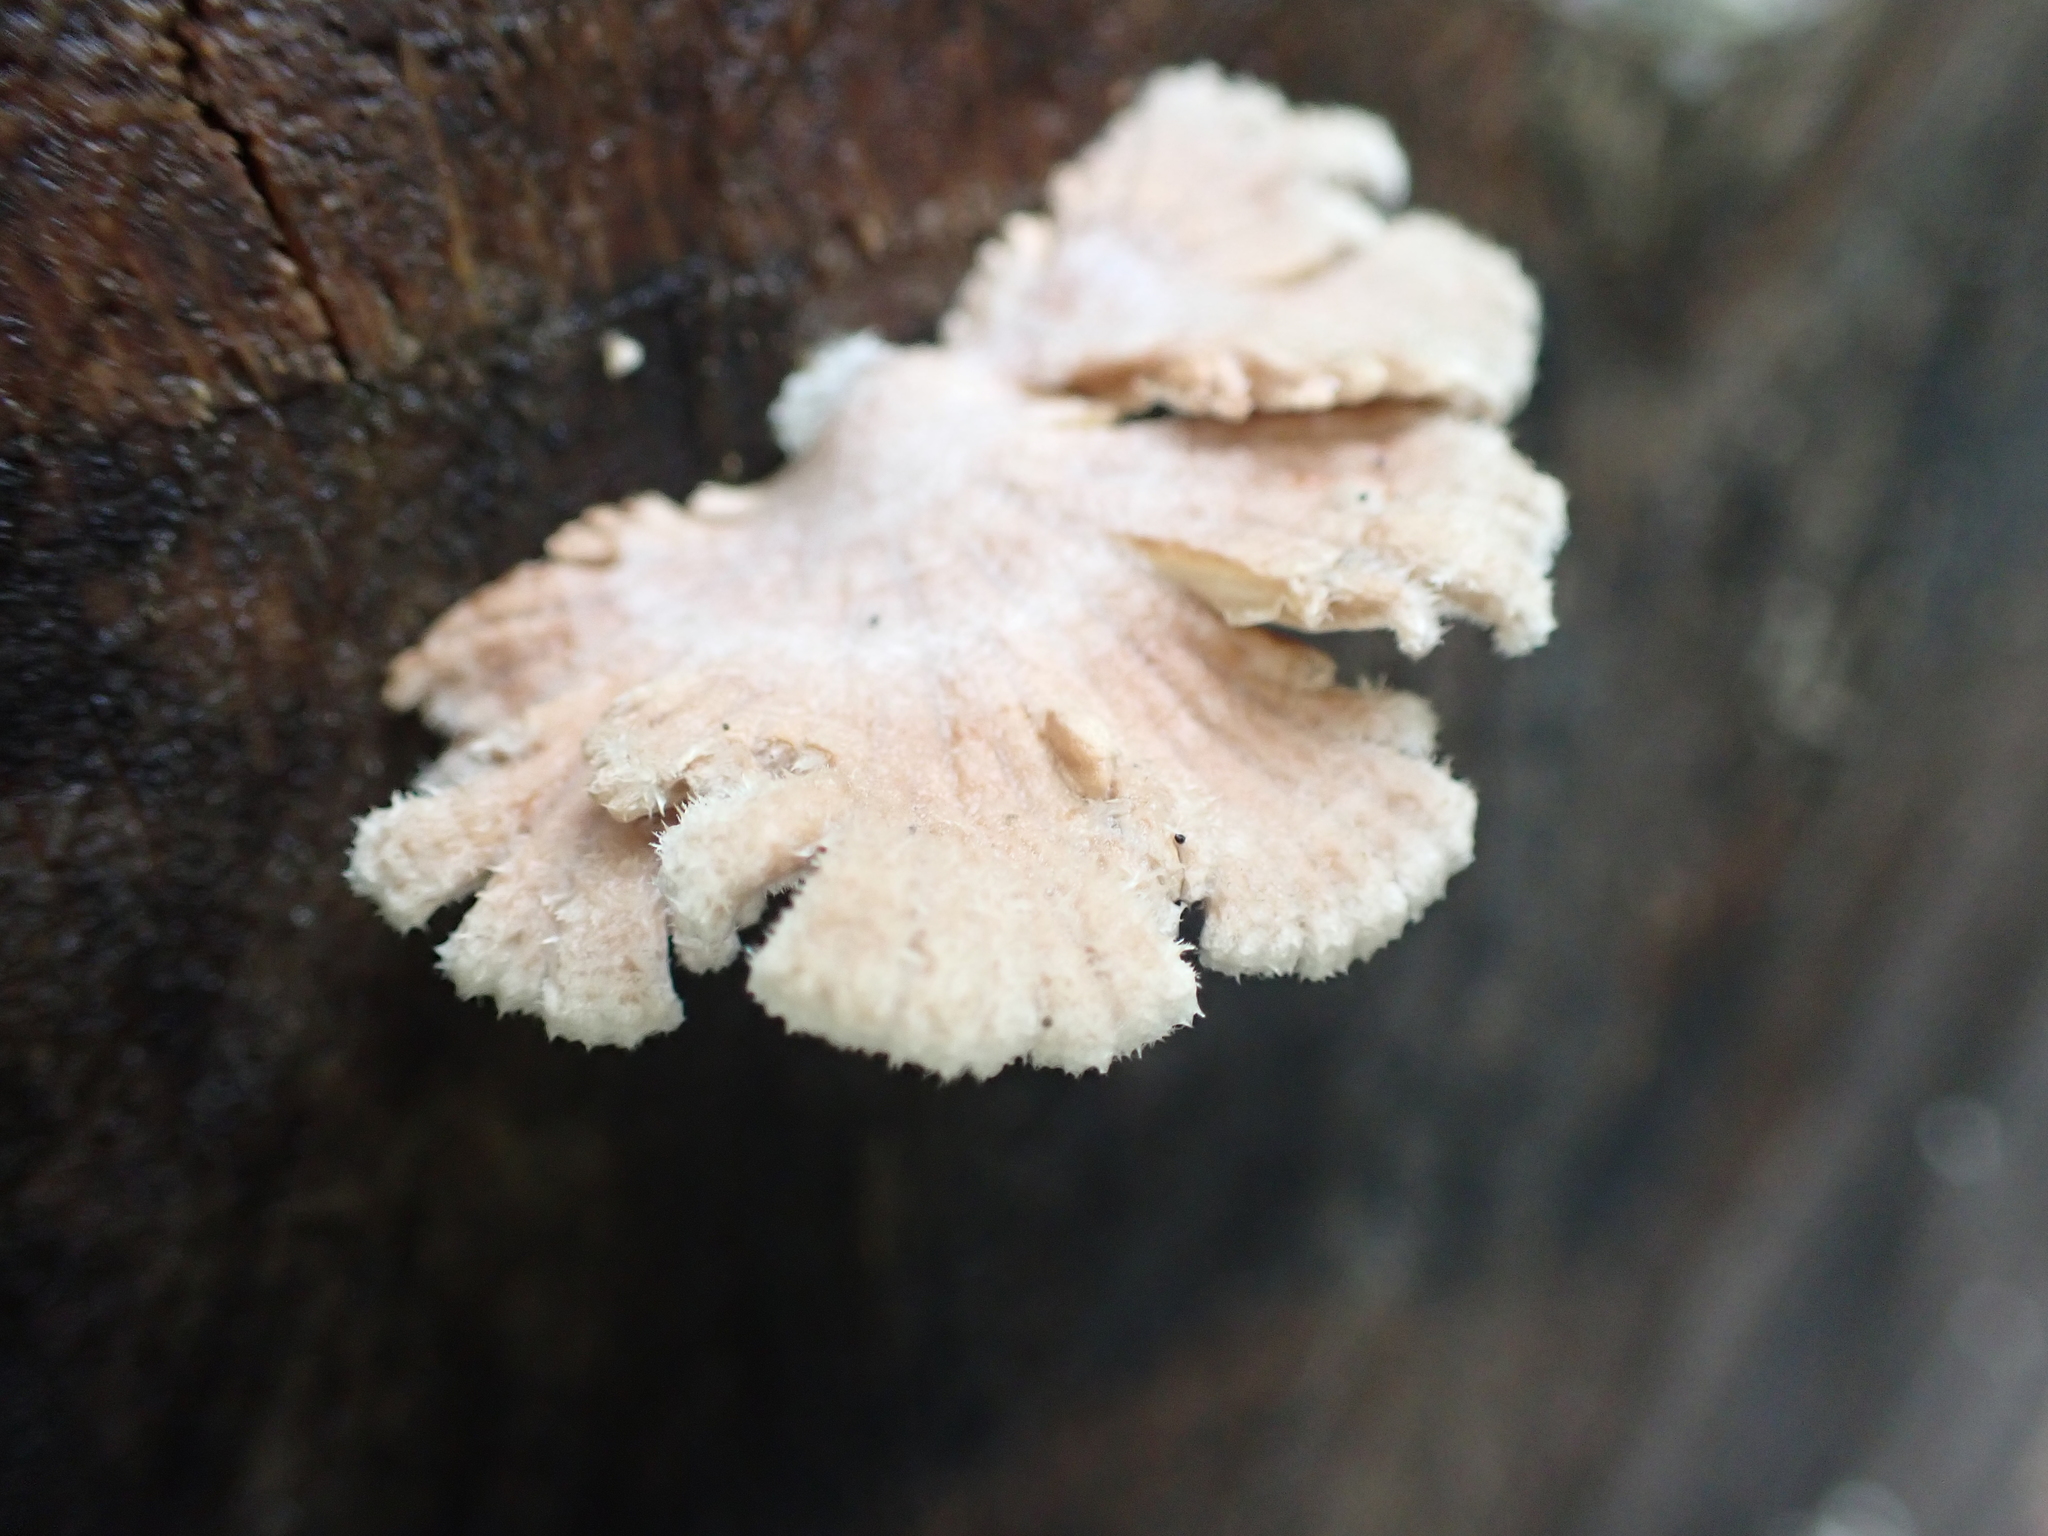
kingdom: Fungi
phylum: Basidiomycota
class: Agaricomycetes
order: Agaricales
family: Schizophyllaceae
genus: Schizophyllum
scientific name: Schizophyllum commune
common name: Common porecrust
